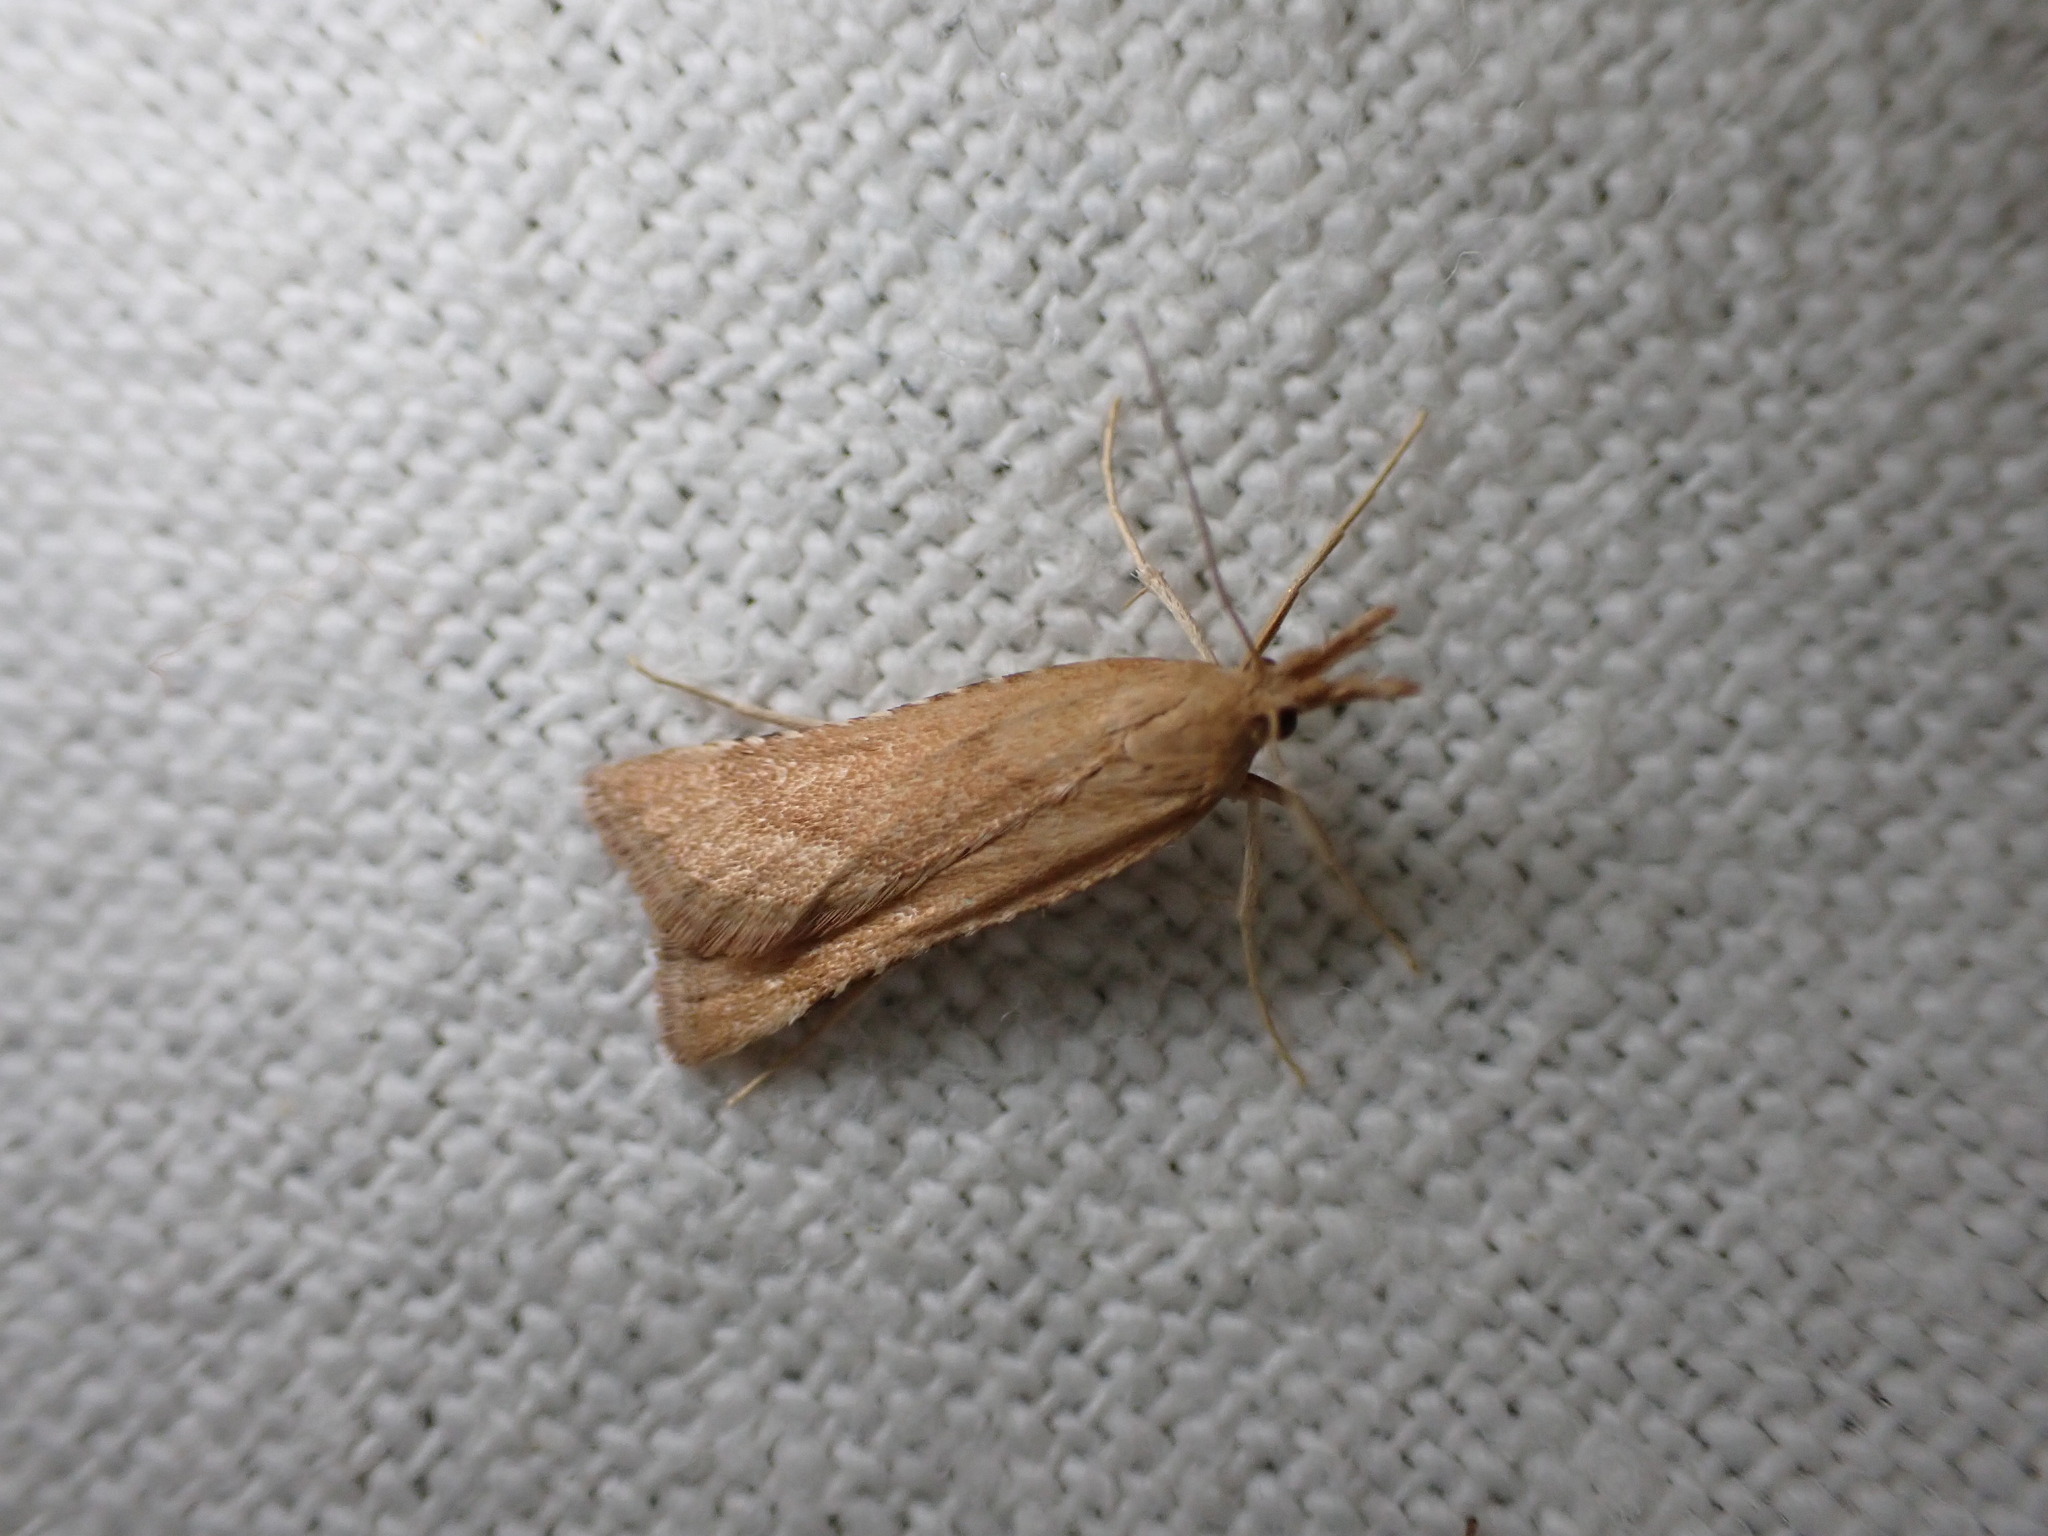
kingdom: Animalia
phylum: Arthropoda
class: Insecta
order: Lepidoptera
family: Pyralidae
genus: Synaphe
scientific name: Synaphe punctalis
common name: Long-legged tabby
